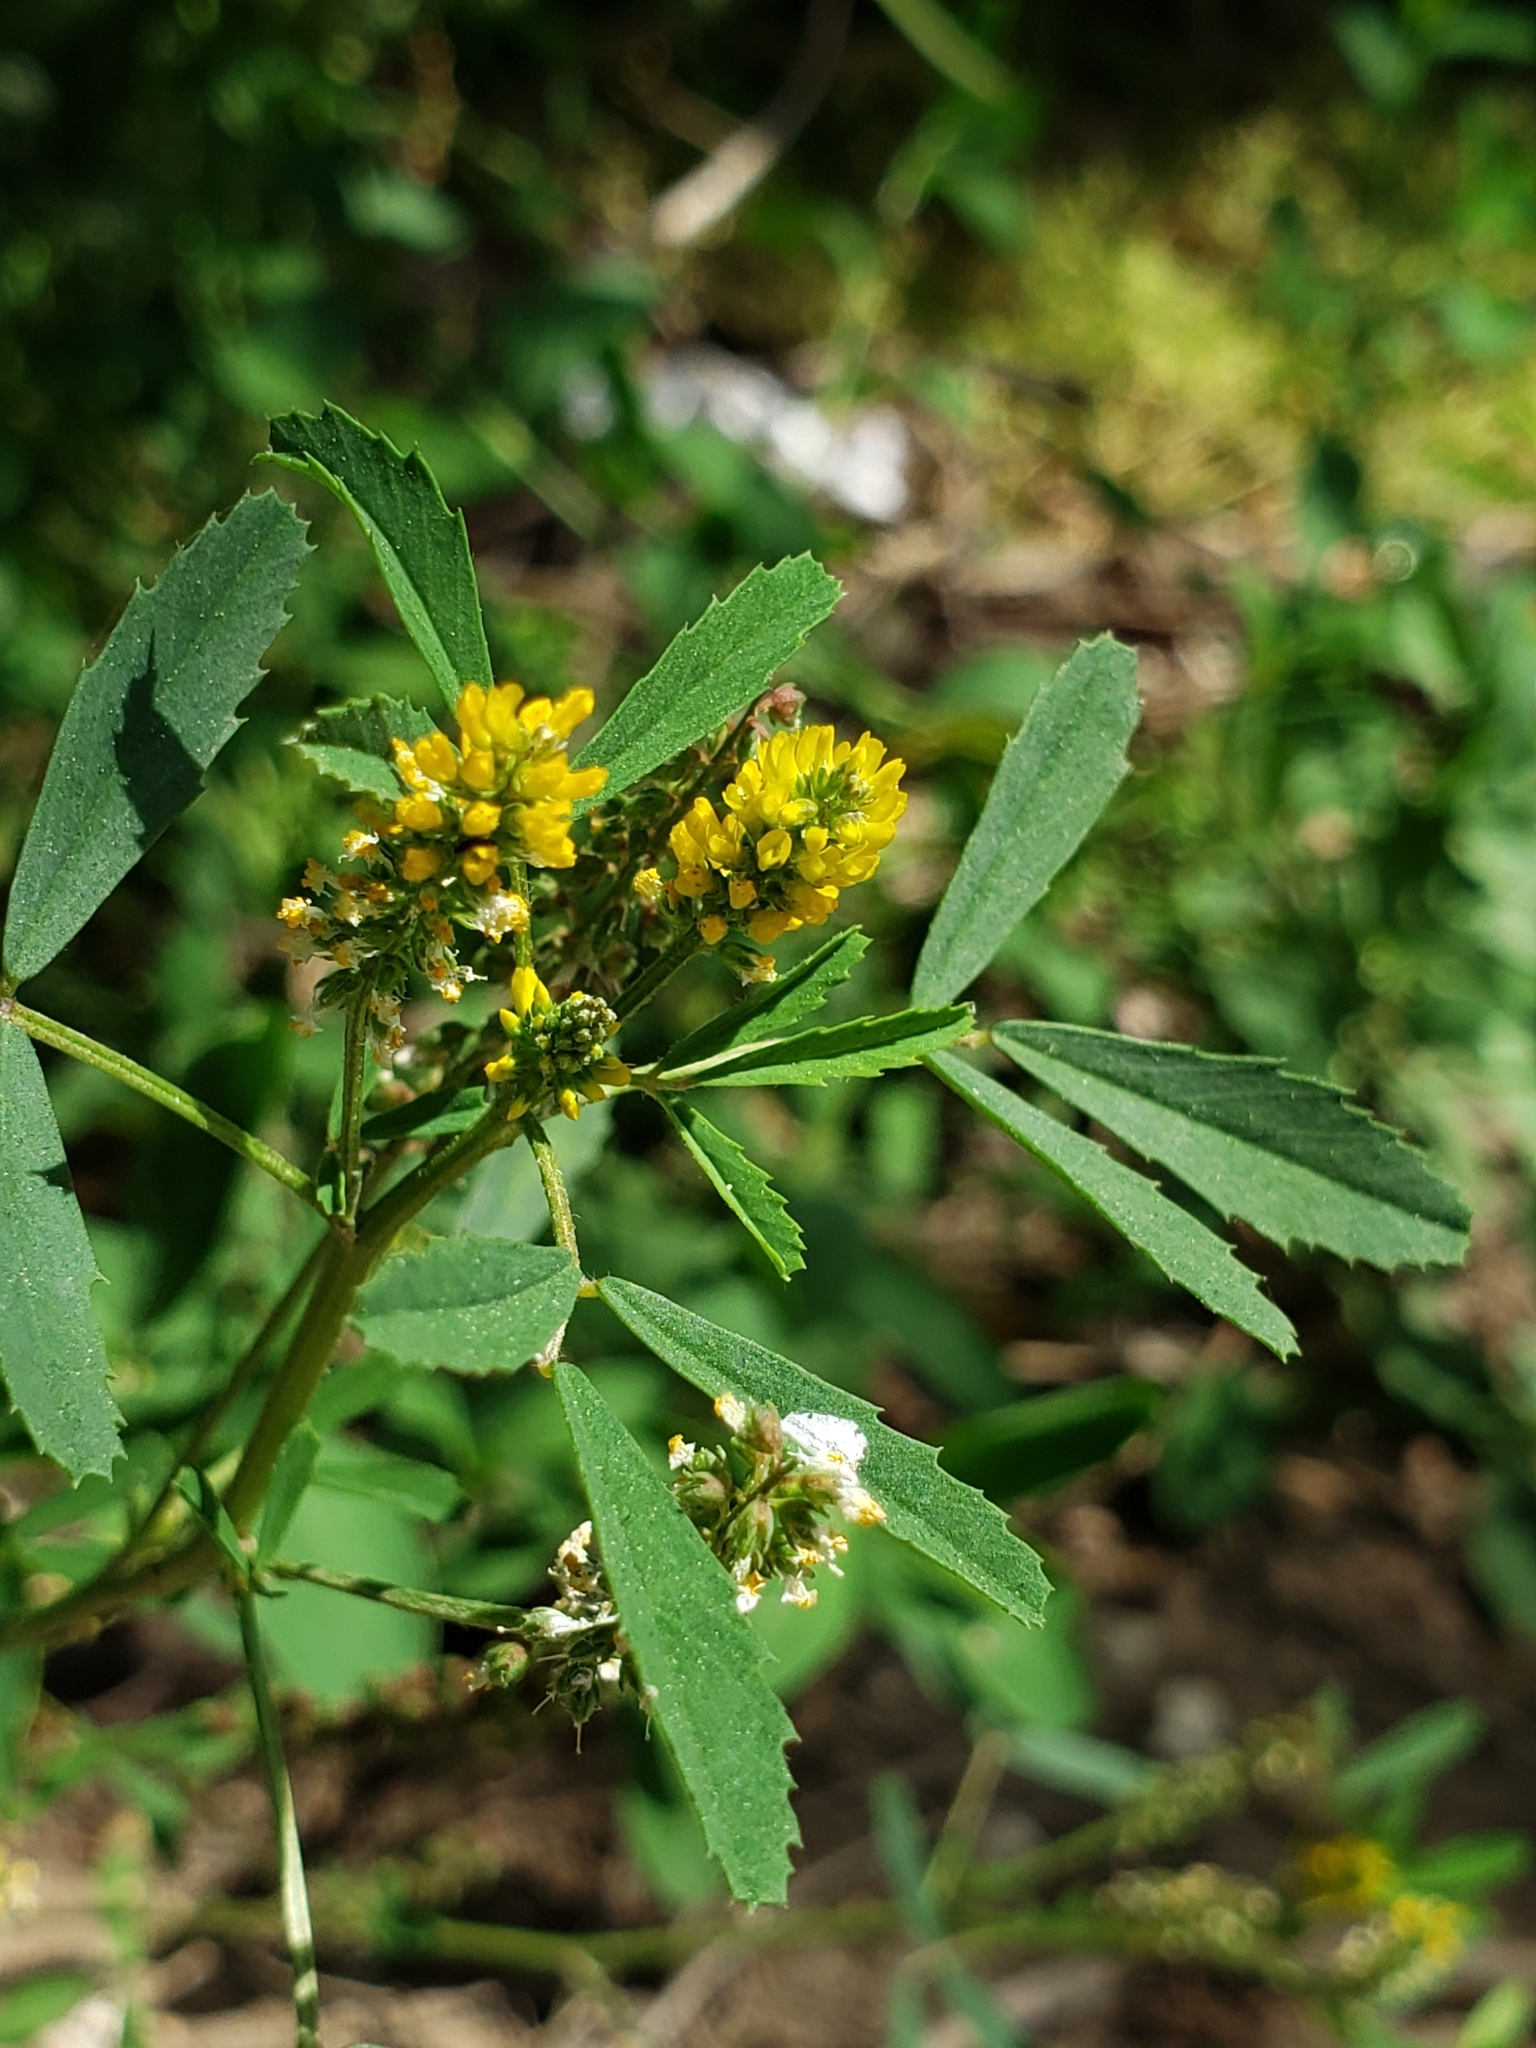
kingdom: Plantae
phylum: Tracheophyta
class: Magnoliopsida
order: Fabales
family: Fabaceae
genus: Melilotus
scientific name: Melilotus indicus
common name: Small melilot
